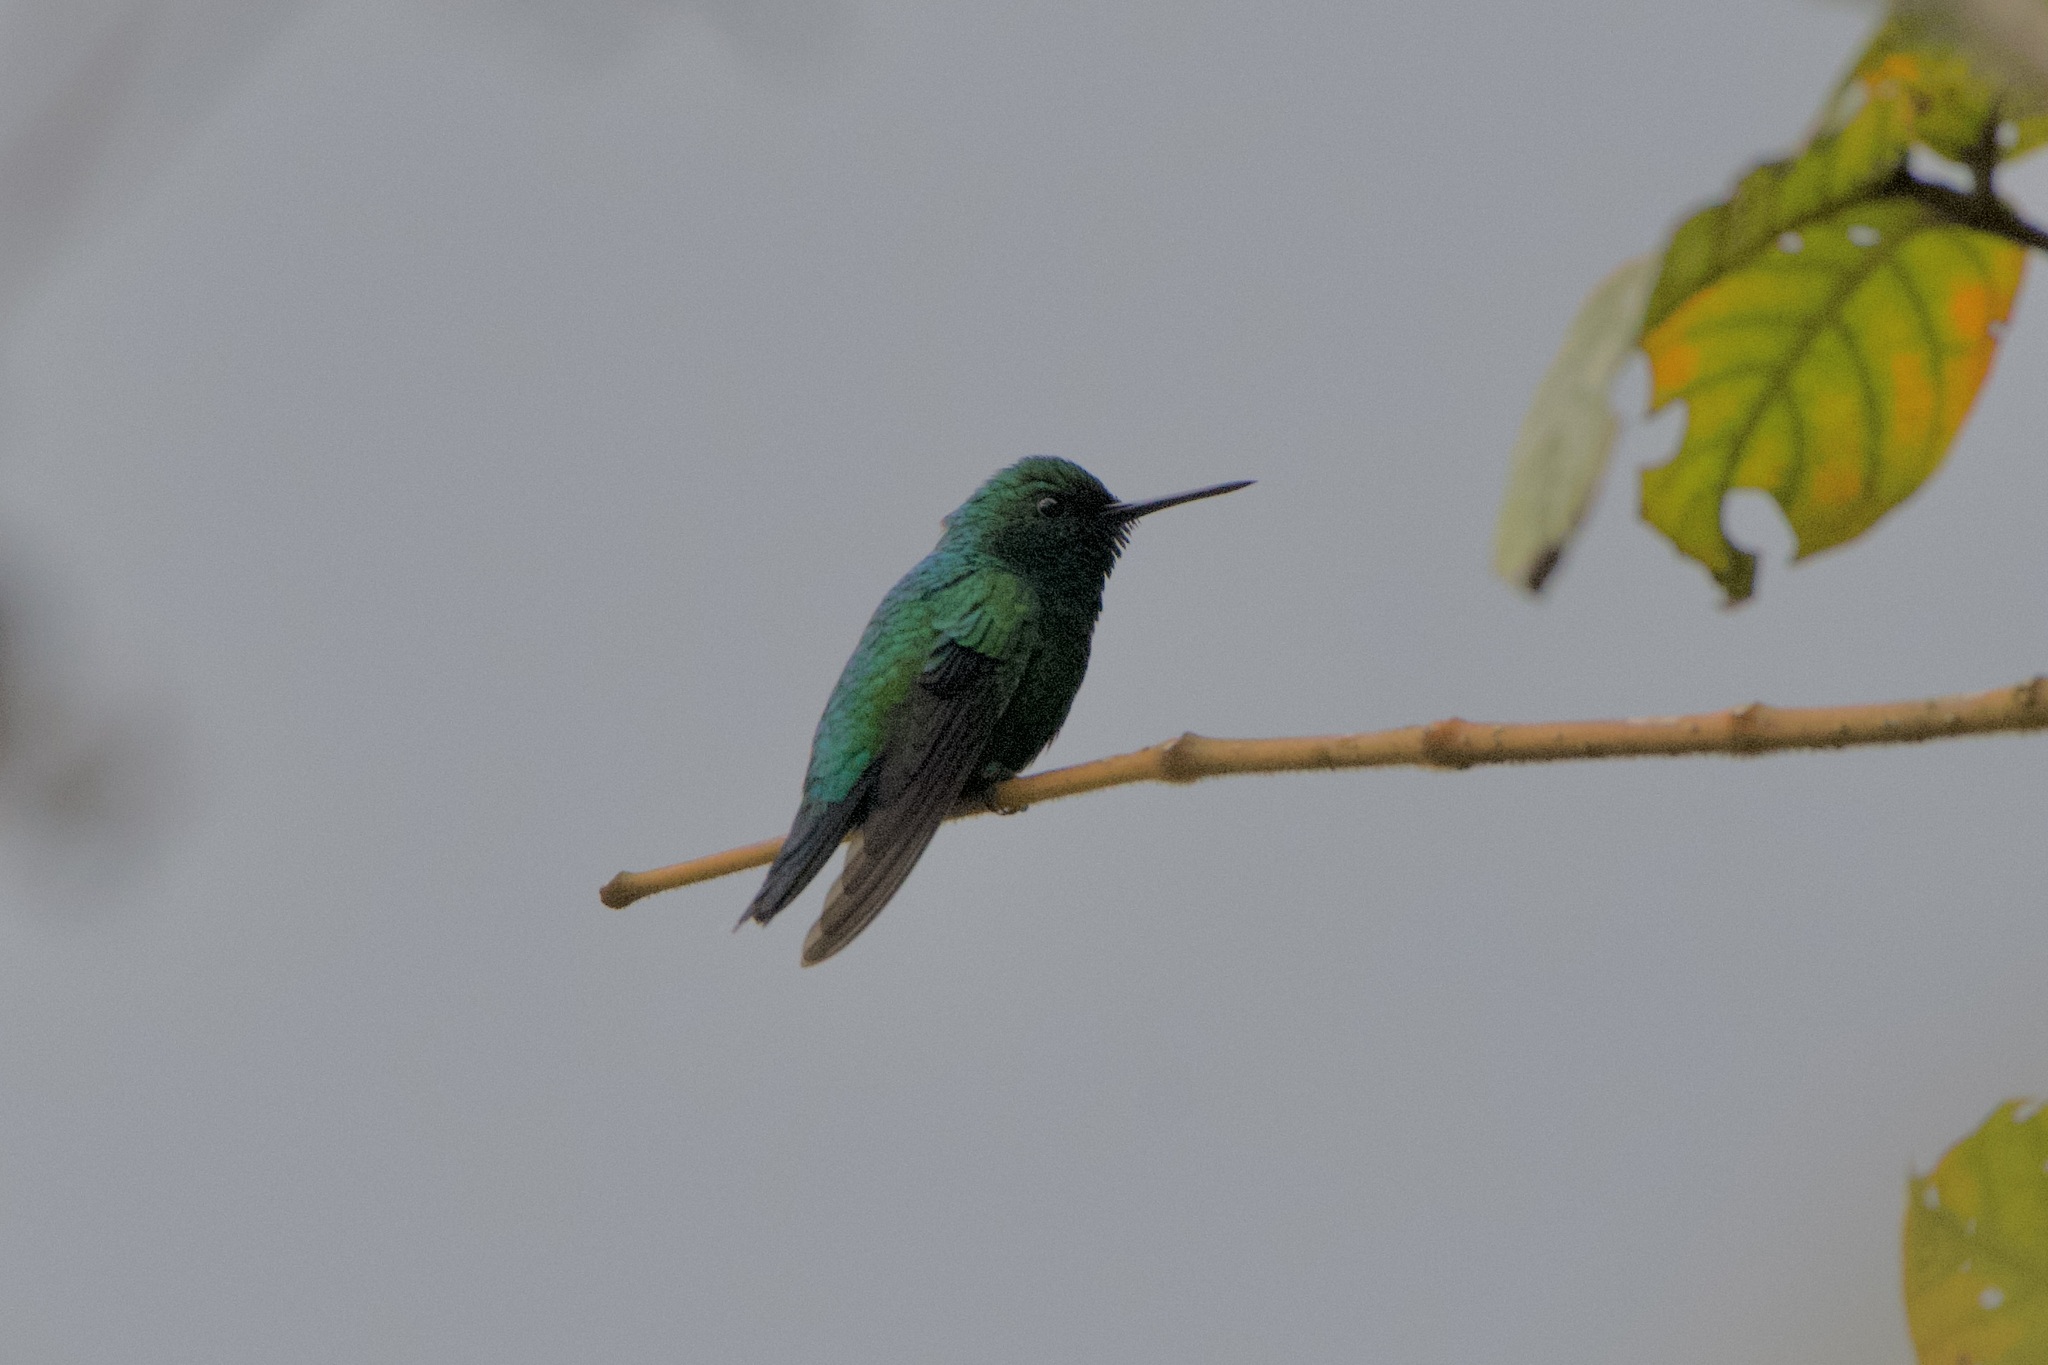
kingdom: Animalia
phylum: Chordata
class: Aves
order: Apodiformes
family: Trochilidae
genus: Chlorostilbon
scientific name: Chlorostilbon melanorhynchus
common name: Western emerald
